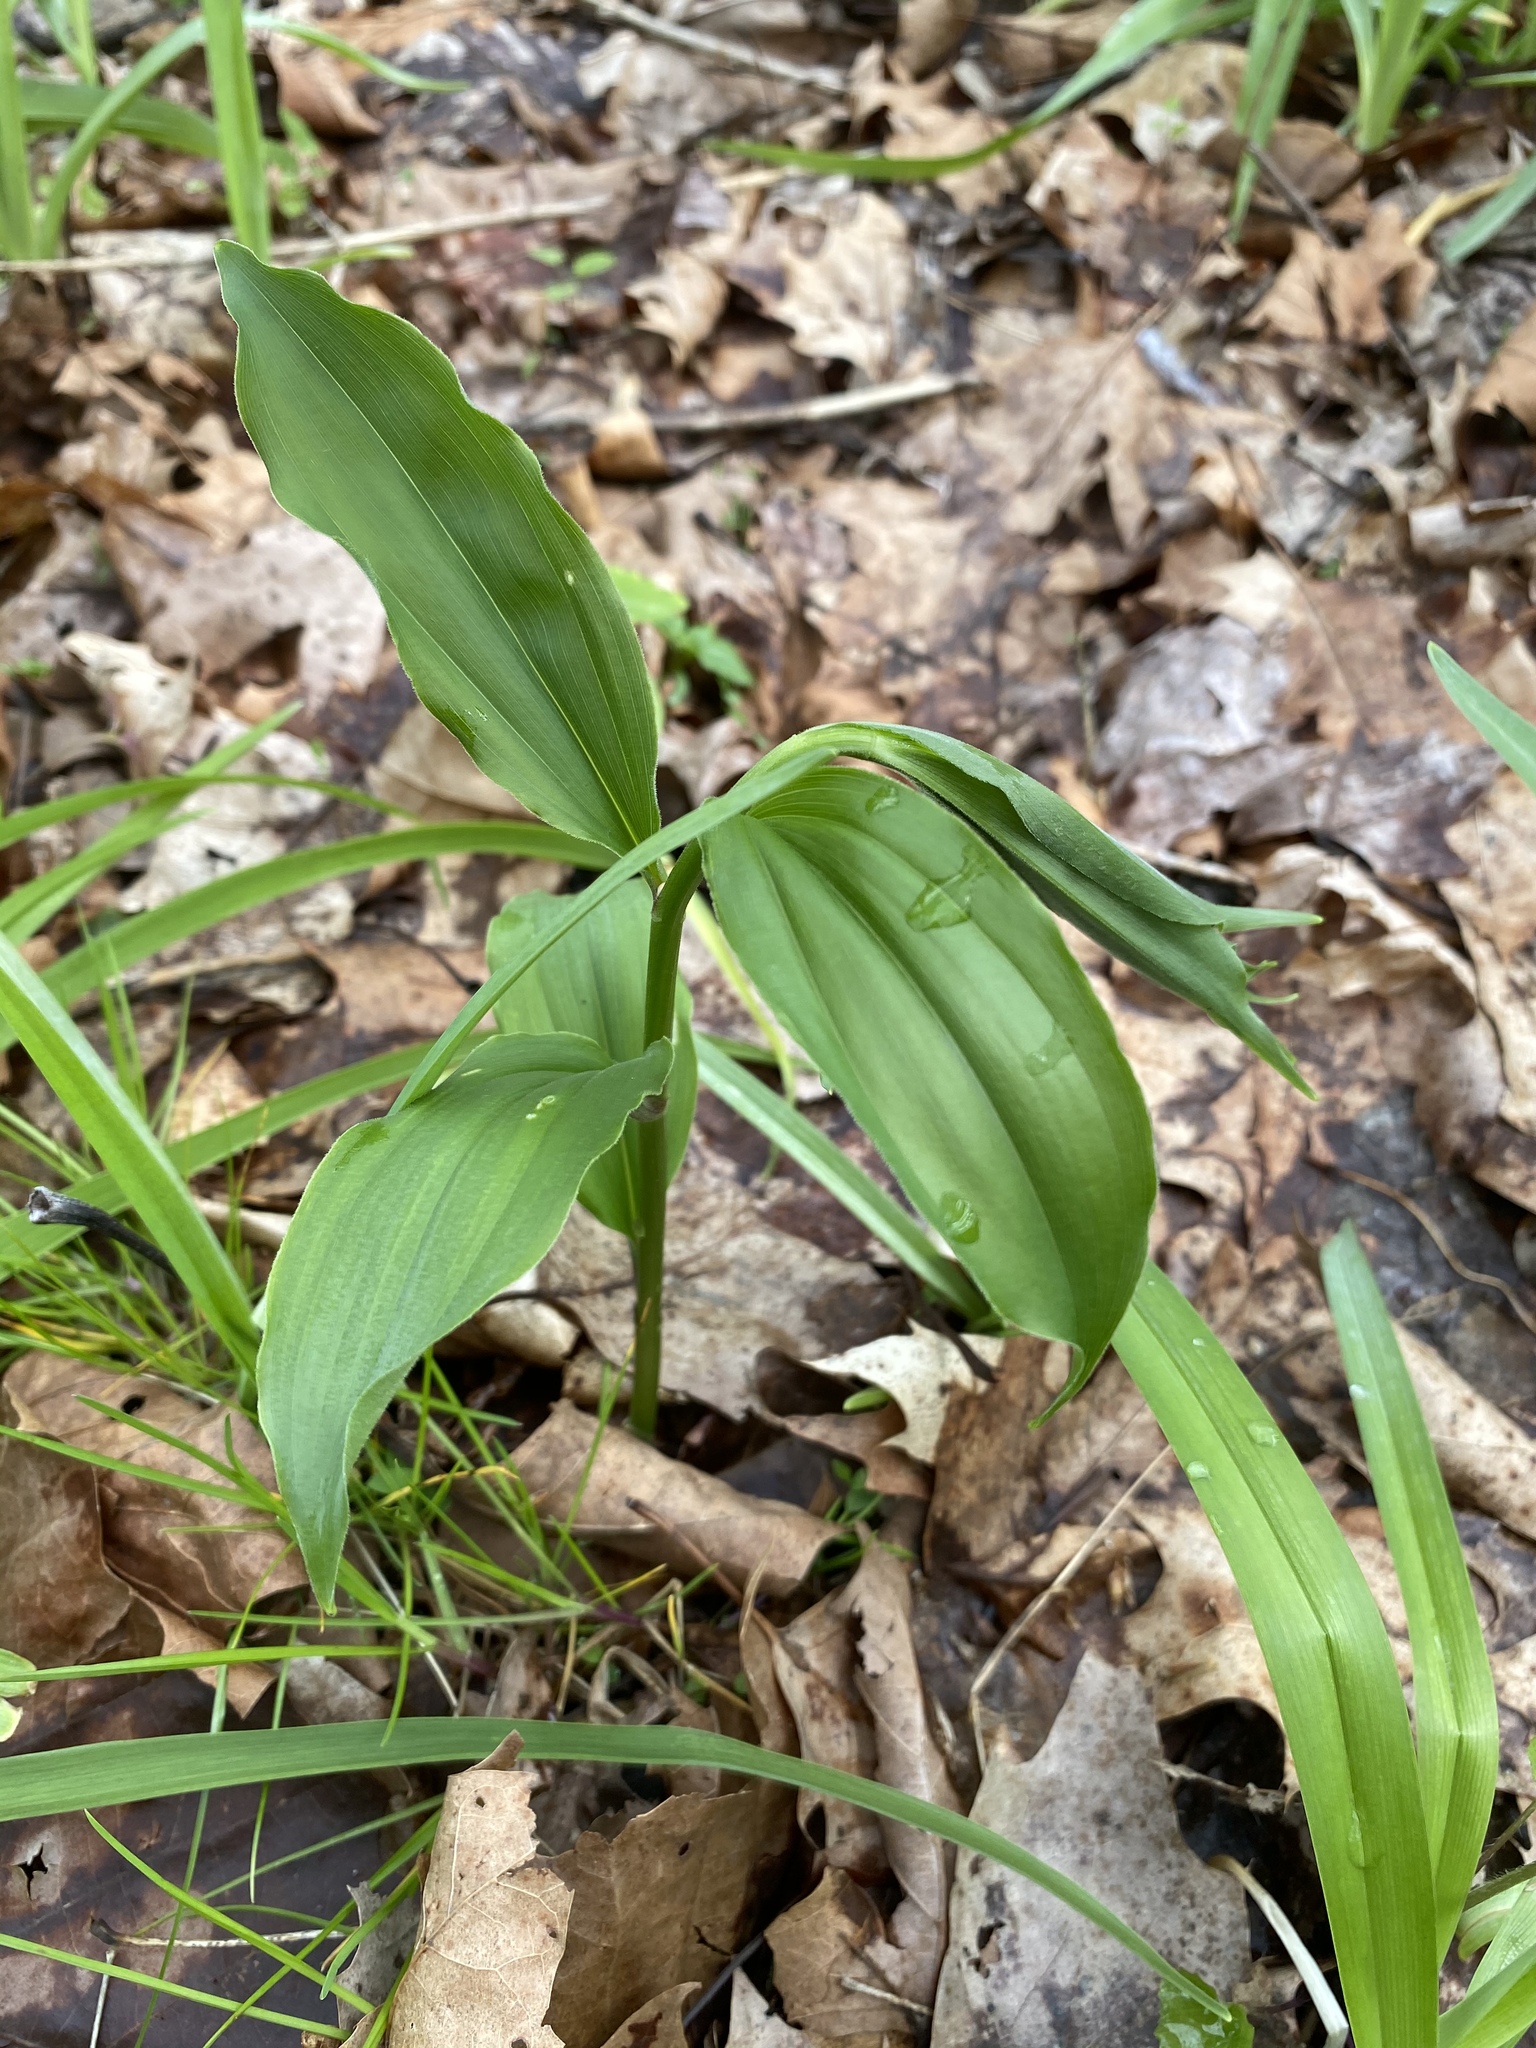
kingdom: Plantae
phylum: Tracheophyta
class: Liliopsida
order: Asparagales
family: Asparagaceae
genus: Maianthemum
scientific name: Maianthemum racemosum
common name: False spikenard
